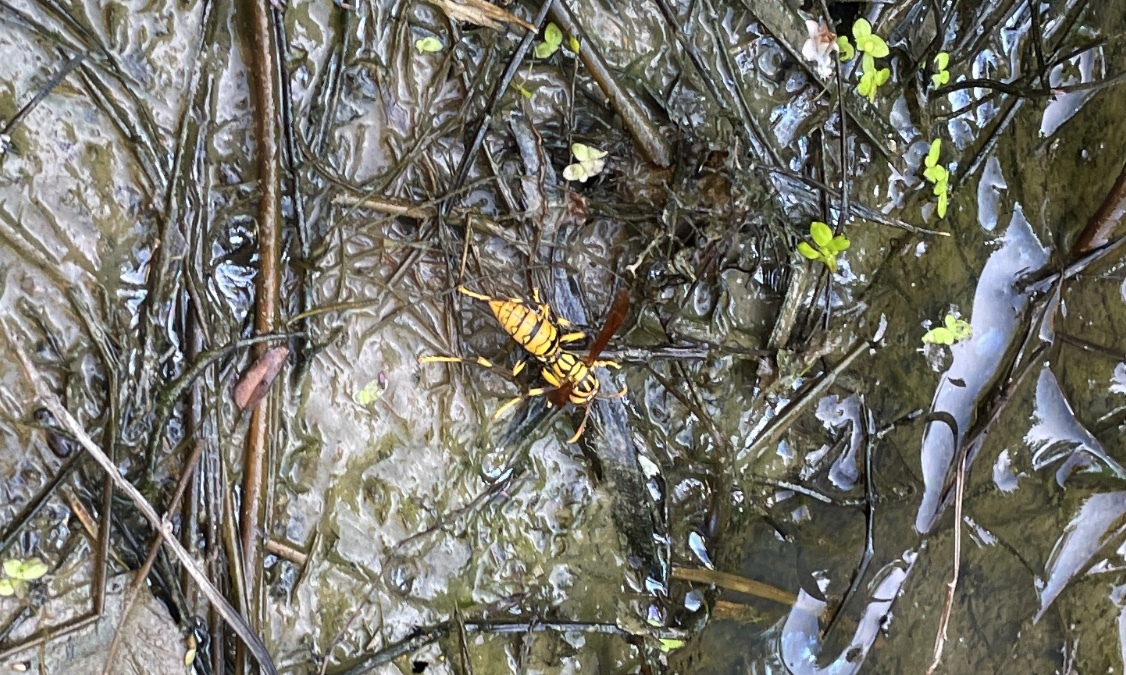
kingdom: Animalia
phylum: Arthropoda
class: Insecta
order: Hymenoptera
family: Eumenidae
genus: Polistes
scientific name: Polistes rothneyi
